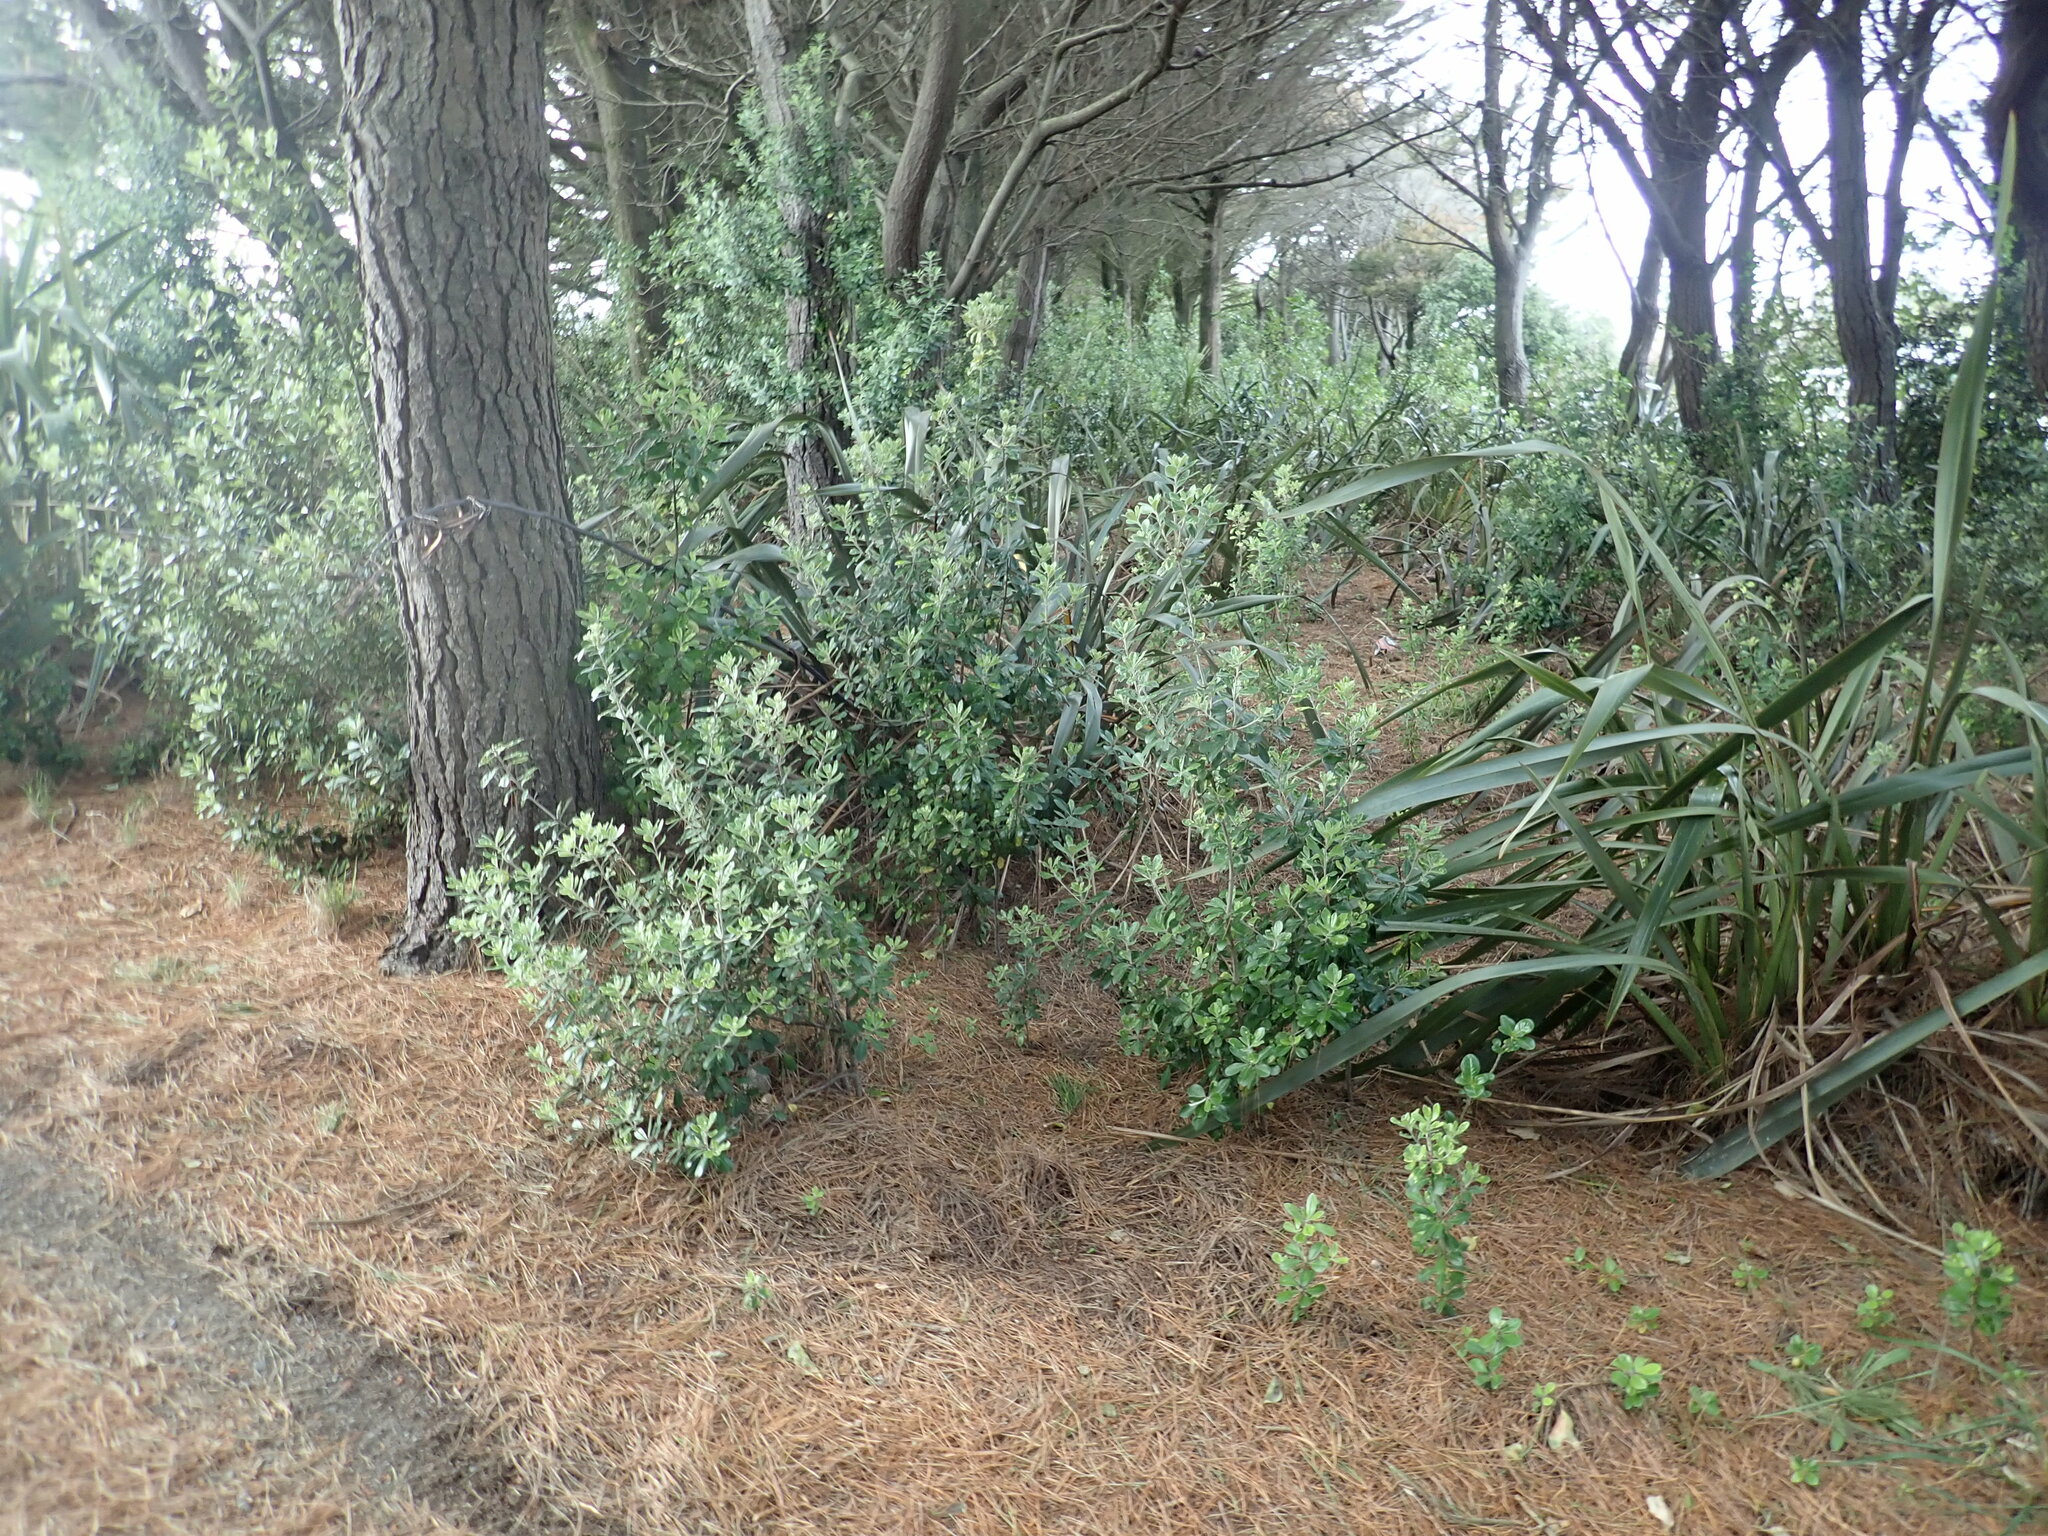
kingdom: Plantae
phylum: Tracheophyta
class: Magnoliopsida
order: Apiales
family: Pittosporaceae
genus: Pittosporum
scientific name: Pittosporum crassifolium
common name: Karo
